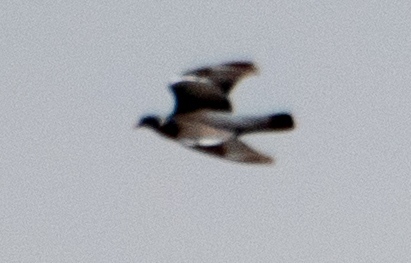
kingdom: Animalia
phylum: Chordata
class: Aves
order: Columbiformes
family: Columbidae
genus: Columba
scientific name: Columba palumbus
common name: Common wood pigeon
